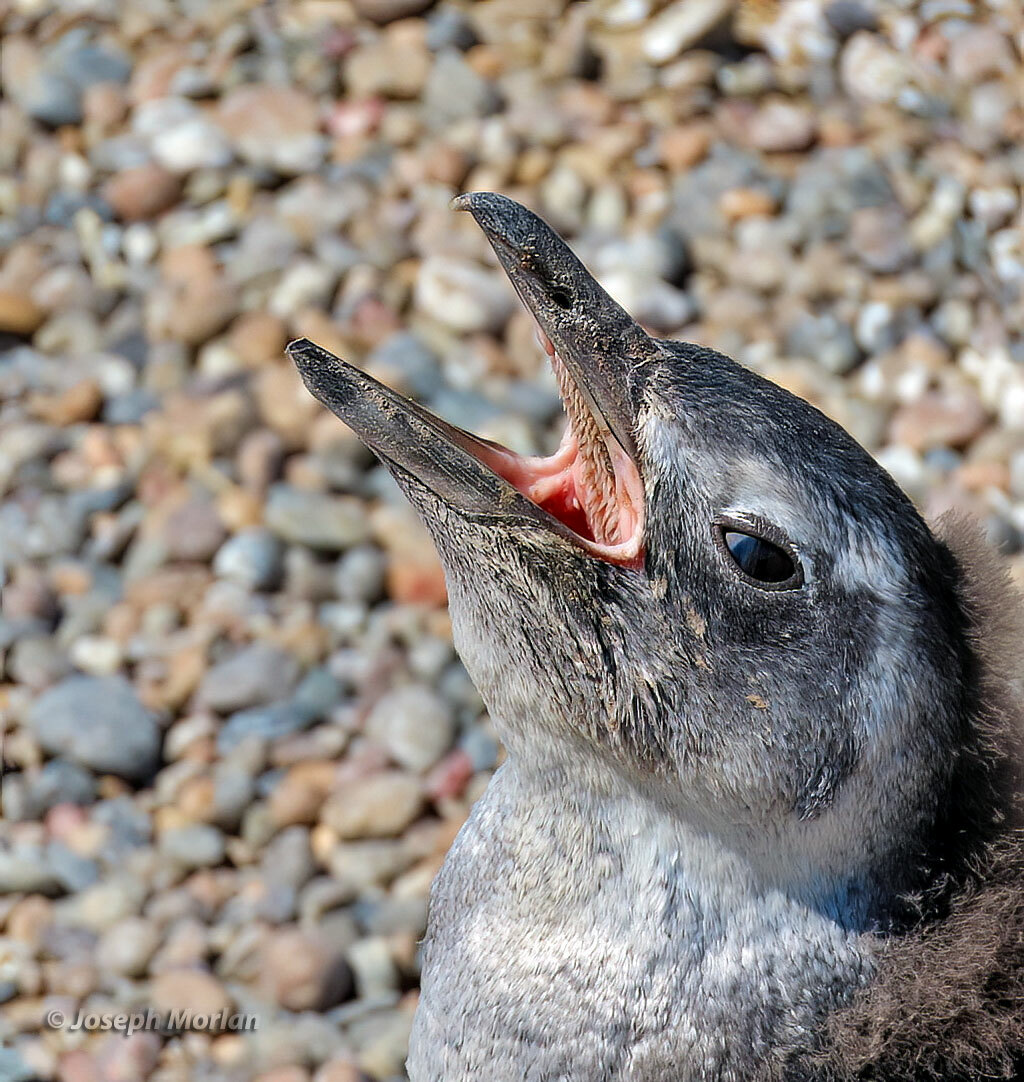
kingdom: Animalia
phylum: Chordata
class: Aves
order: Sphenisciformes
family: Spheniscidae
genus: Spheniscus
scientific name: Spheniscus magellanicus
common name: Magellanic penguin
